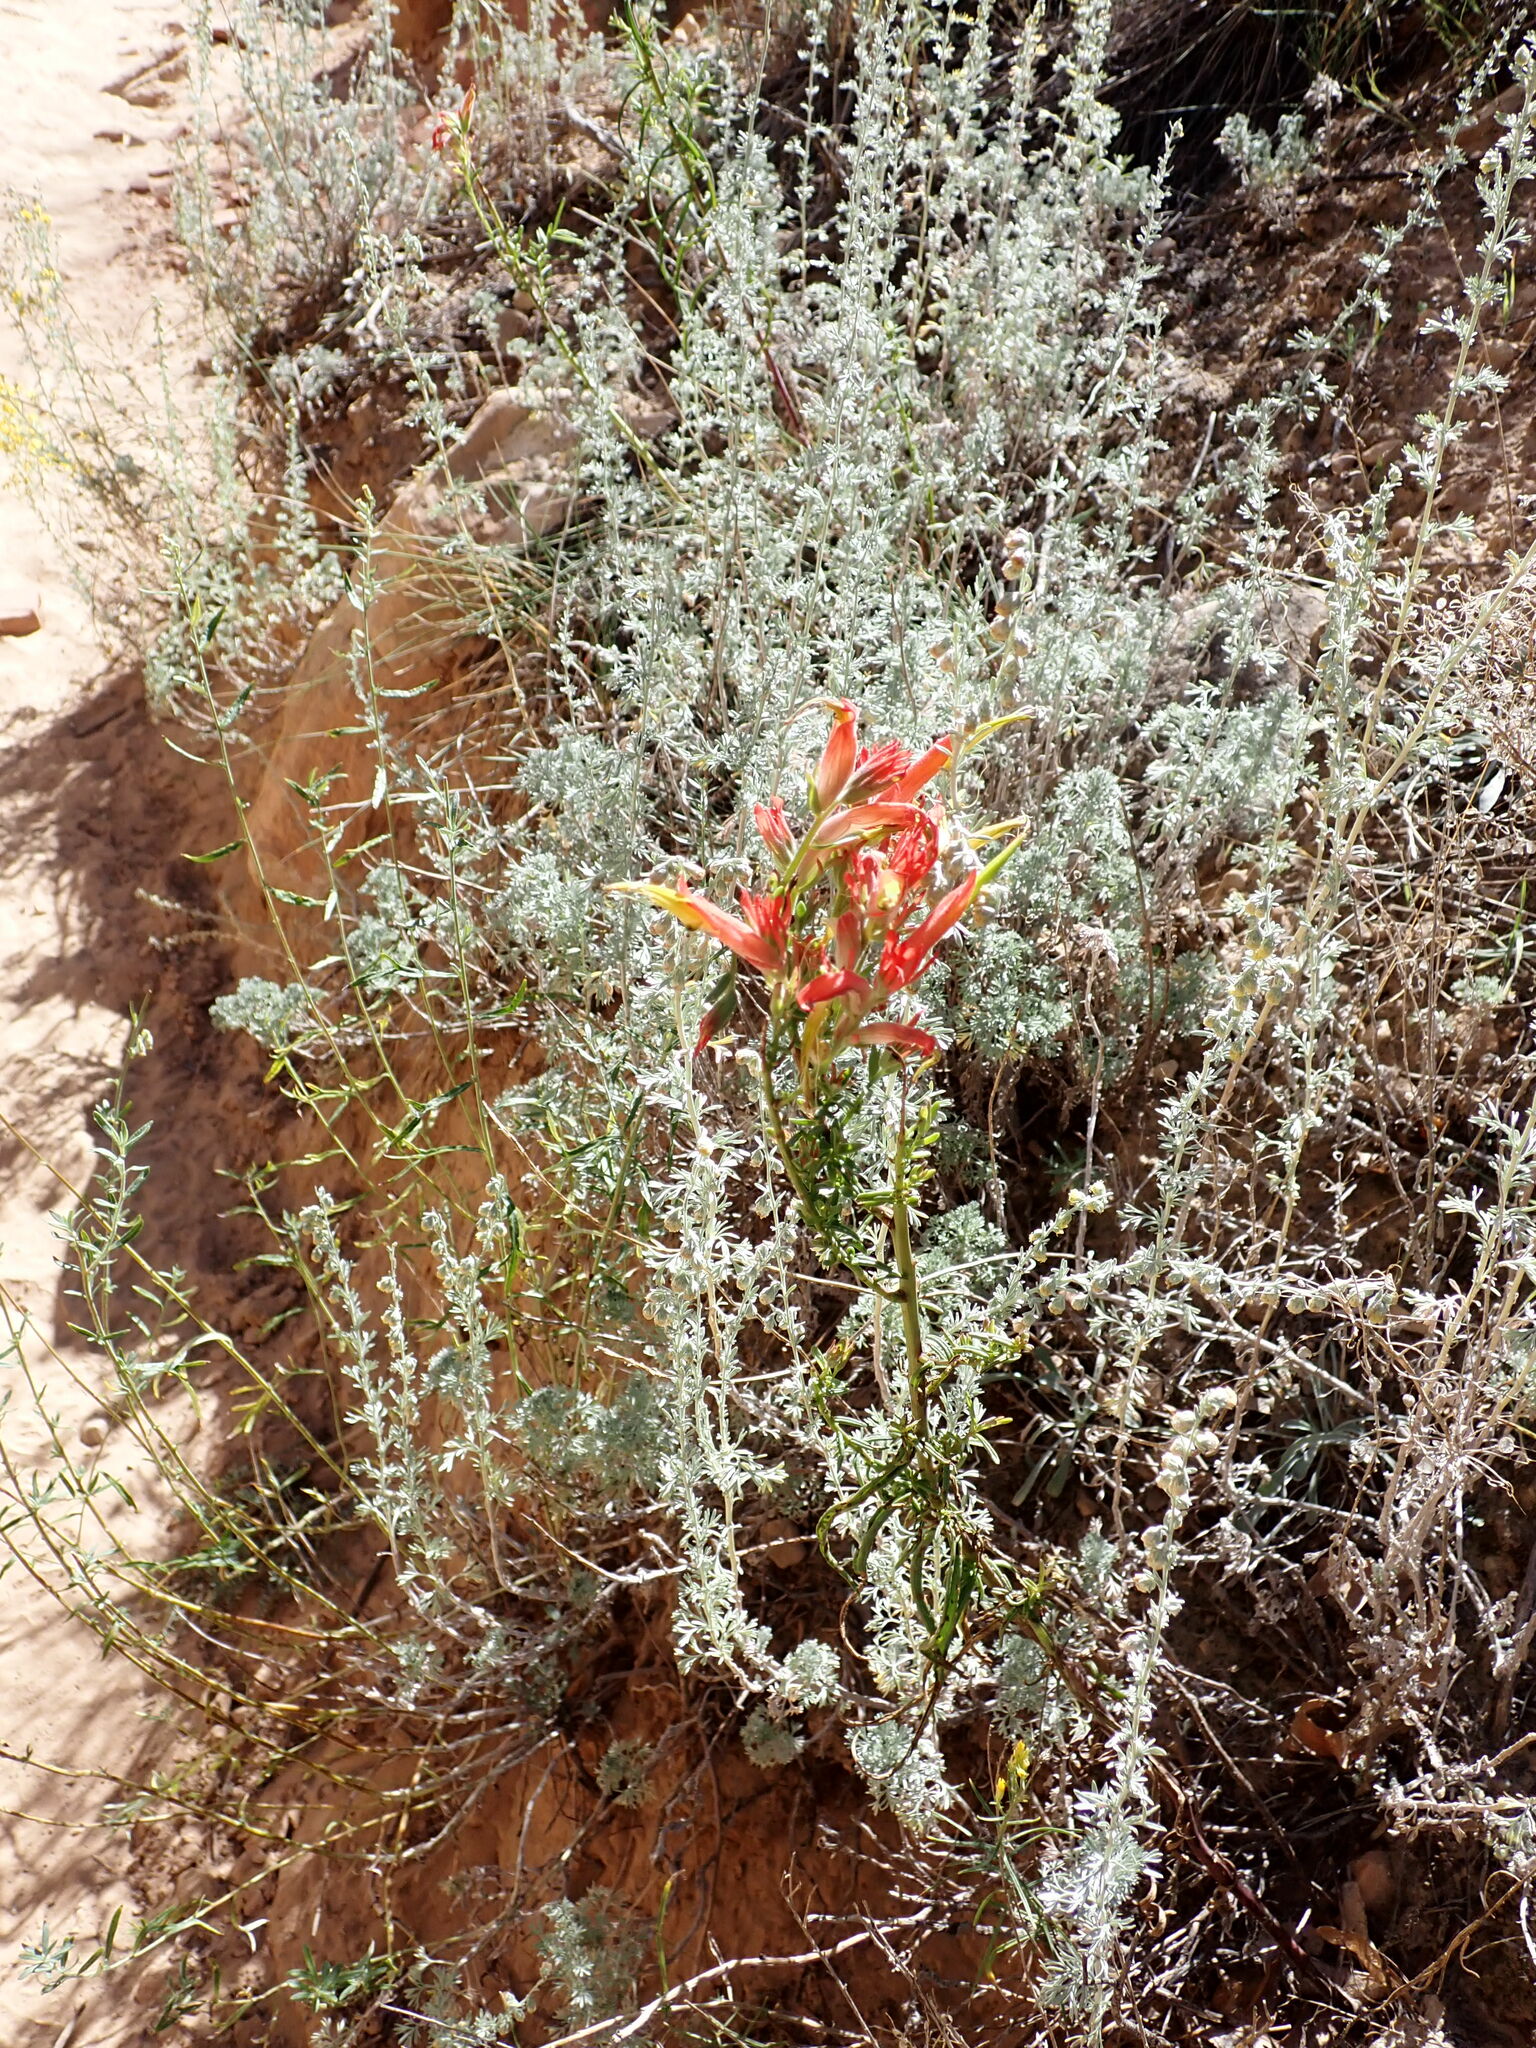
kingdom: Plantae
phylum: Tracheophyta
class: Magnoliopsida
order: Lamiales
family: Orobanchaceae
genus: Castilleja
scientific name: Castilleja linariifolia
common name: Wyoming paintbrush
